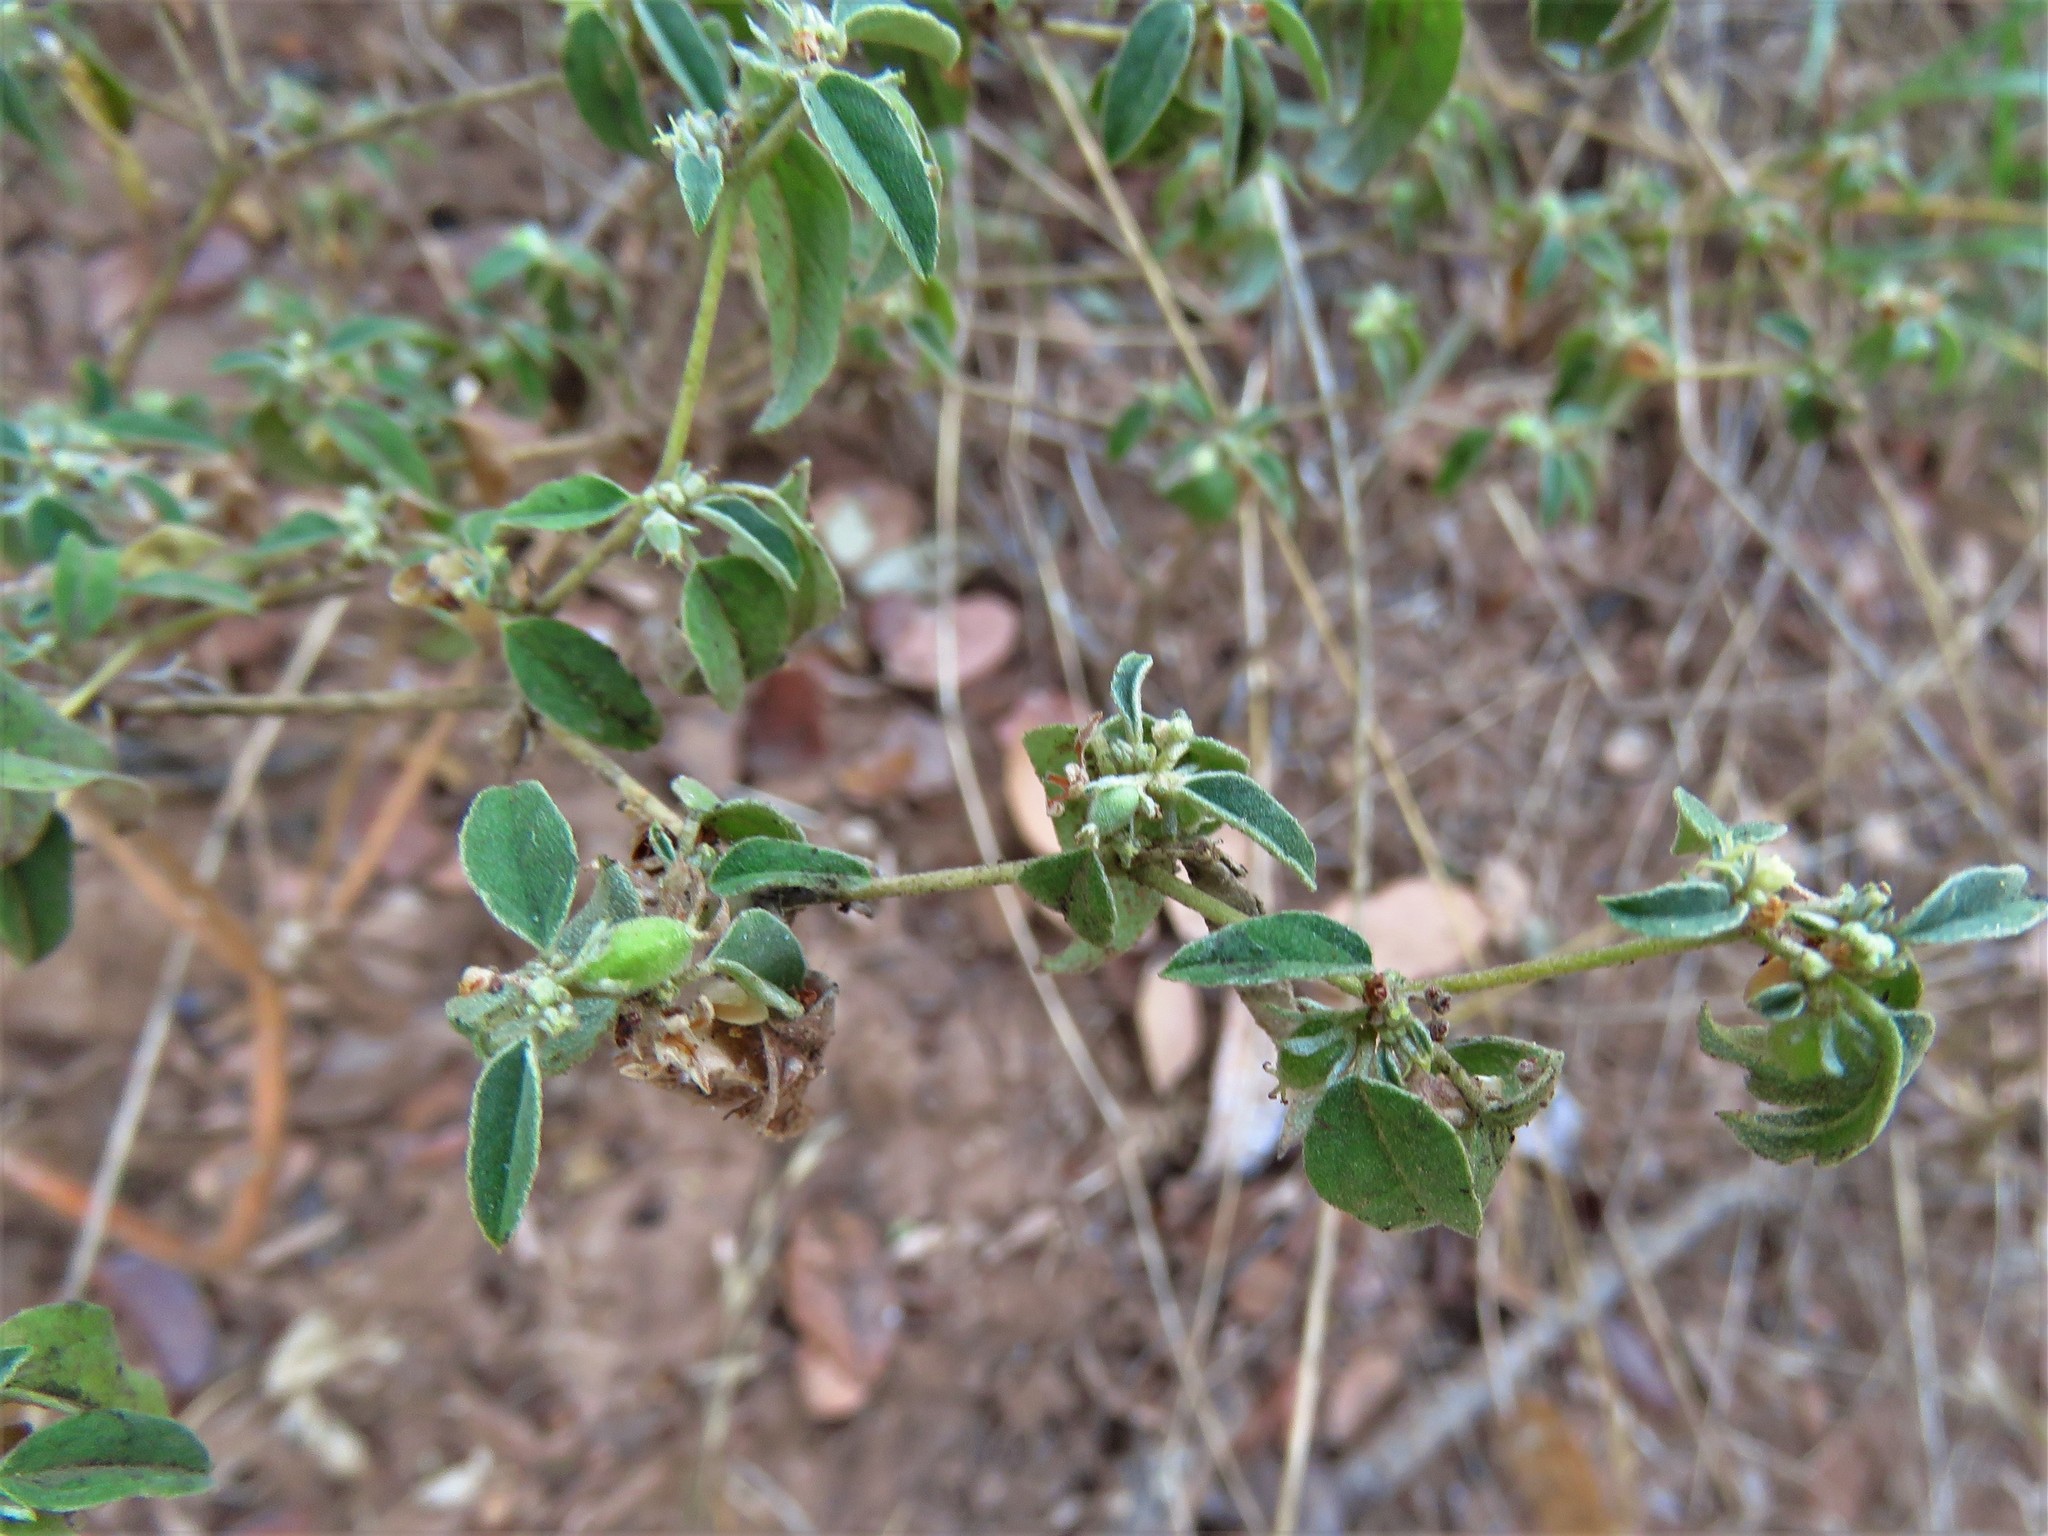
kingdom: Plantae
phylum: Tracheophyta
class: Magnoliopsida
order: Malpighiales
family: Euphorbiaceae
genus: Croton
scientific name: Croton monanthogynus
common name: One-seed croton
